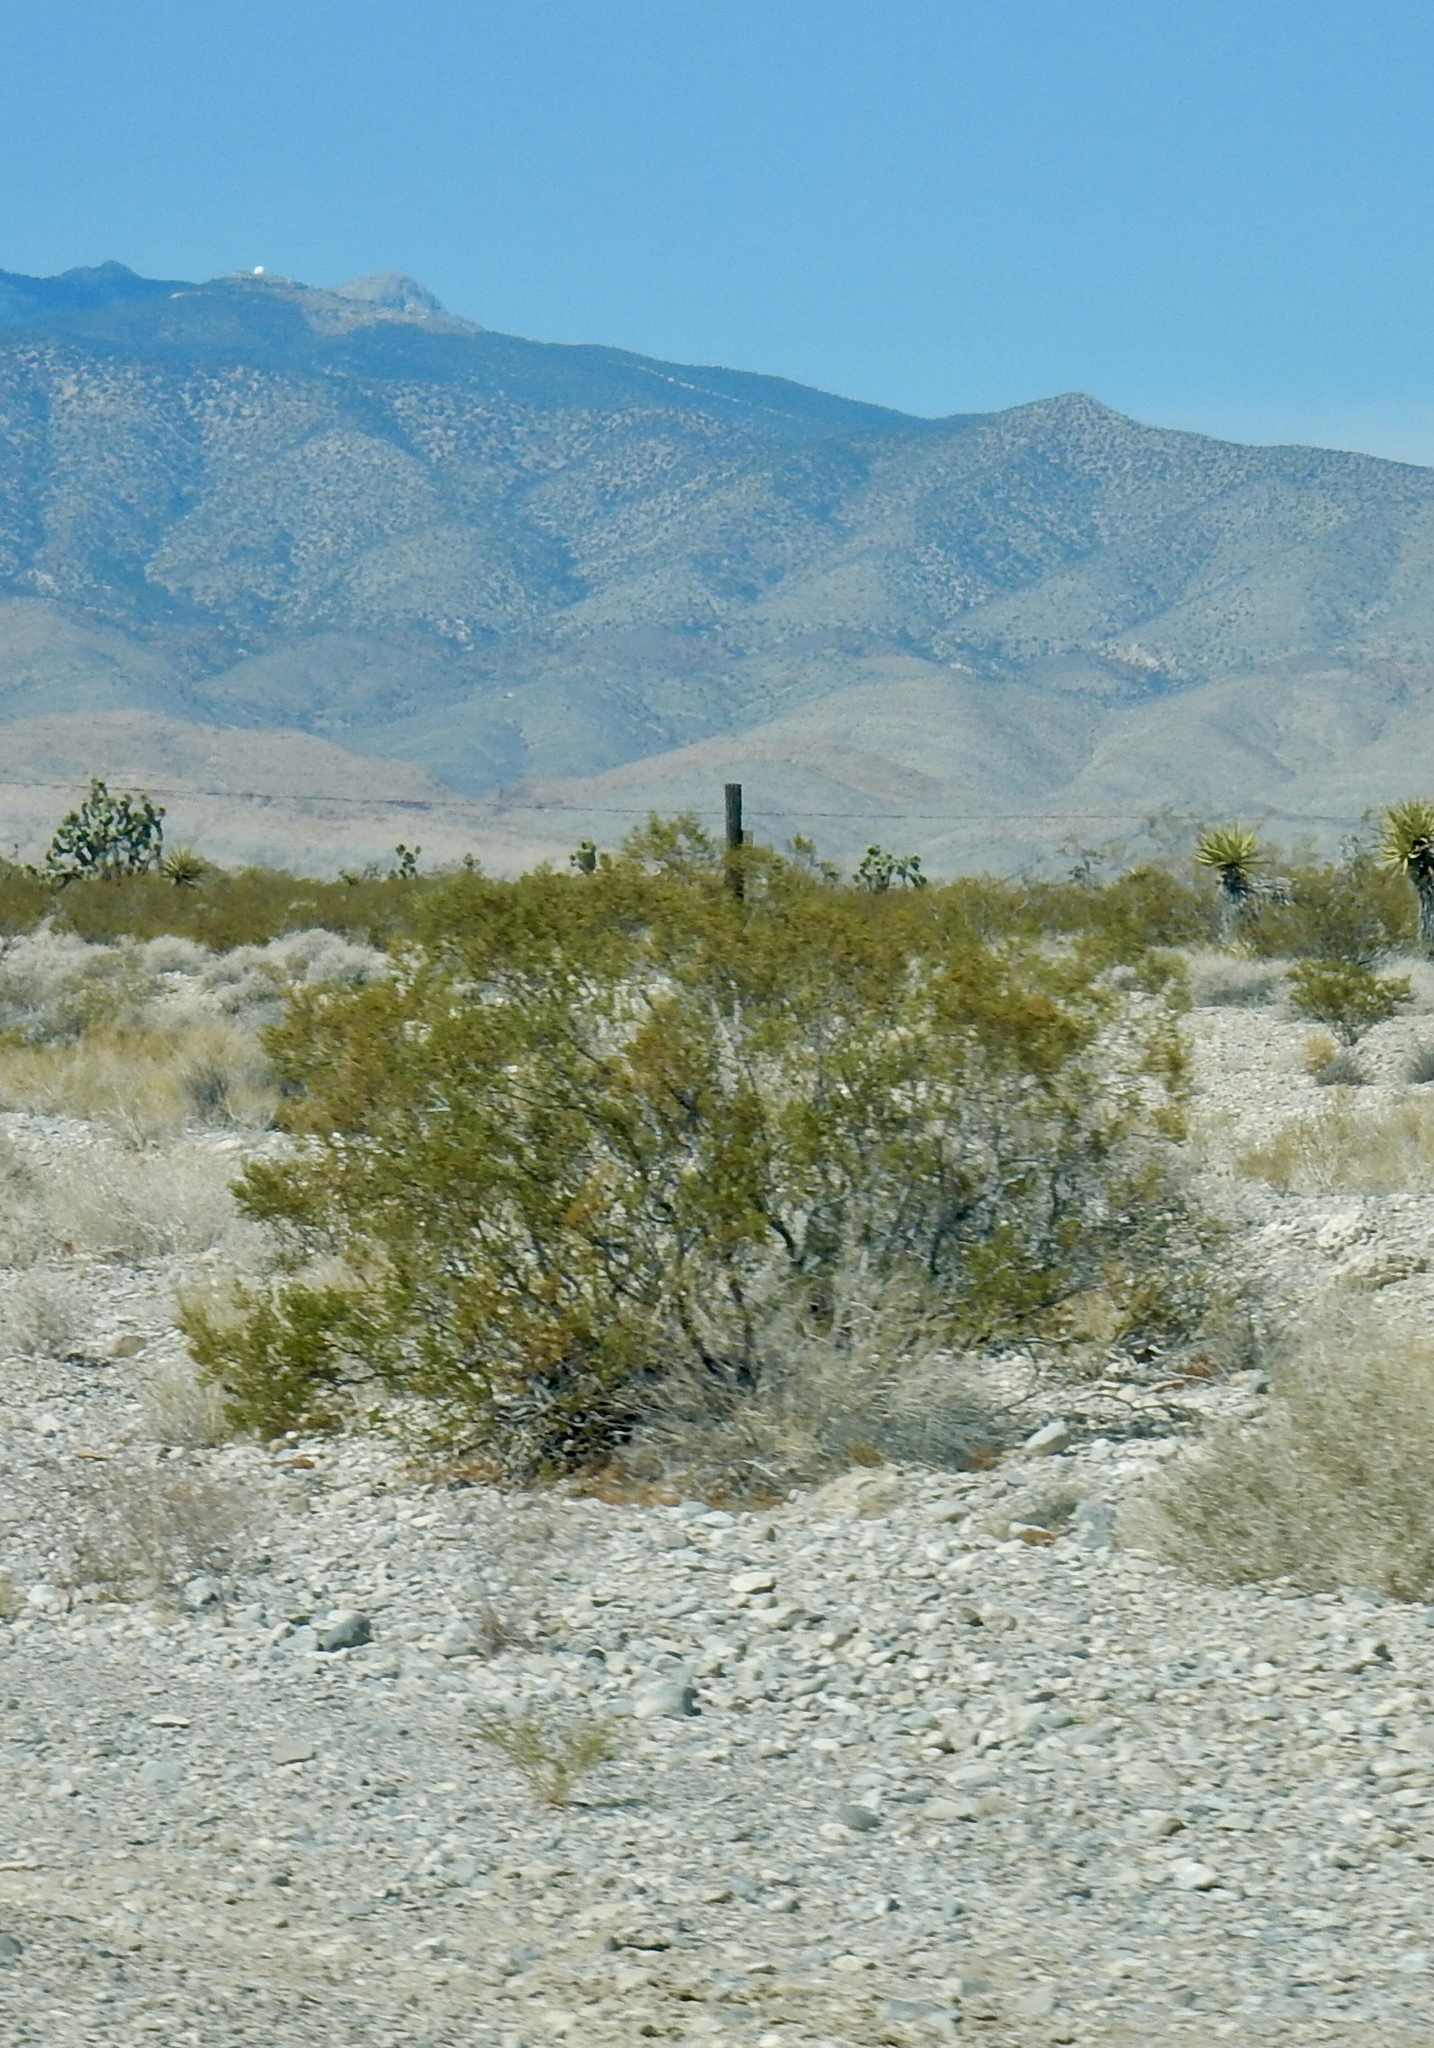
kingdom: Plantae
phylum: Tracheophyta
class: Magnoliopsida
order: Zygophyllales
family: Zygophyllaceae
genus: Larrea
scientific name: Larrea tridentata
